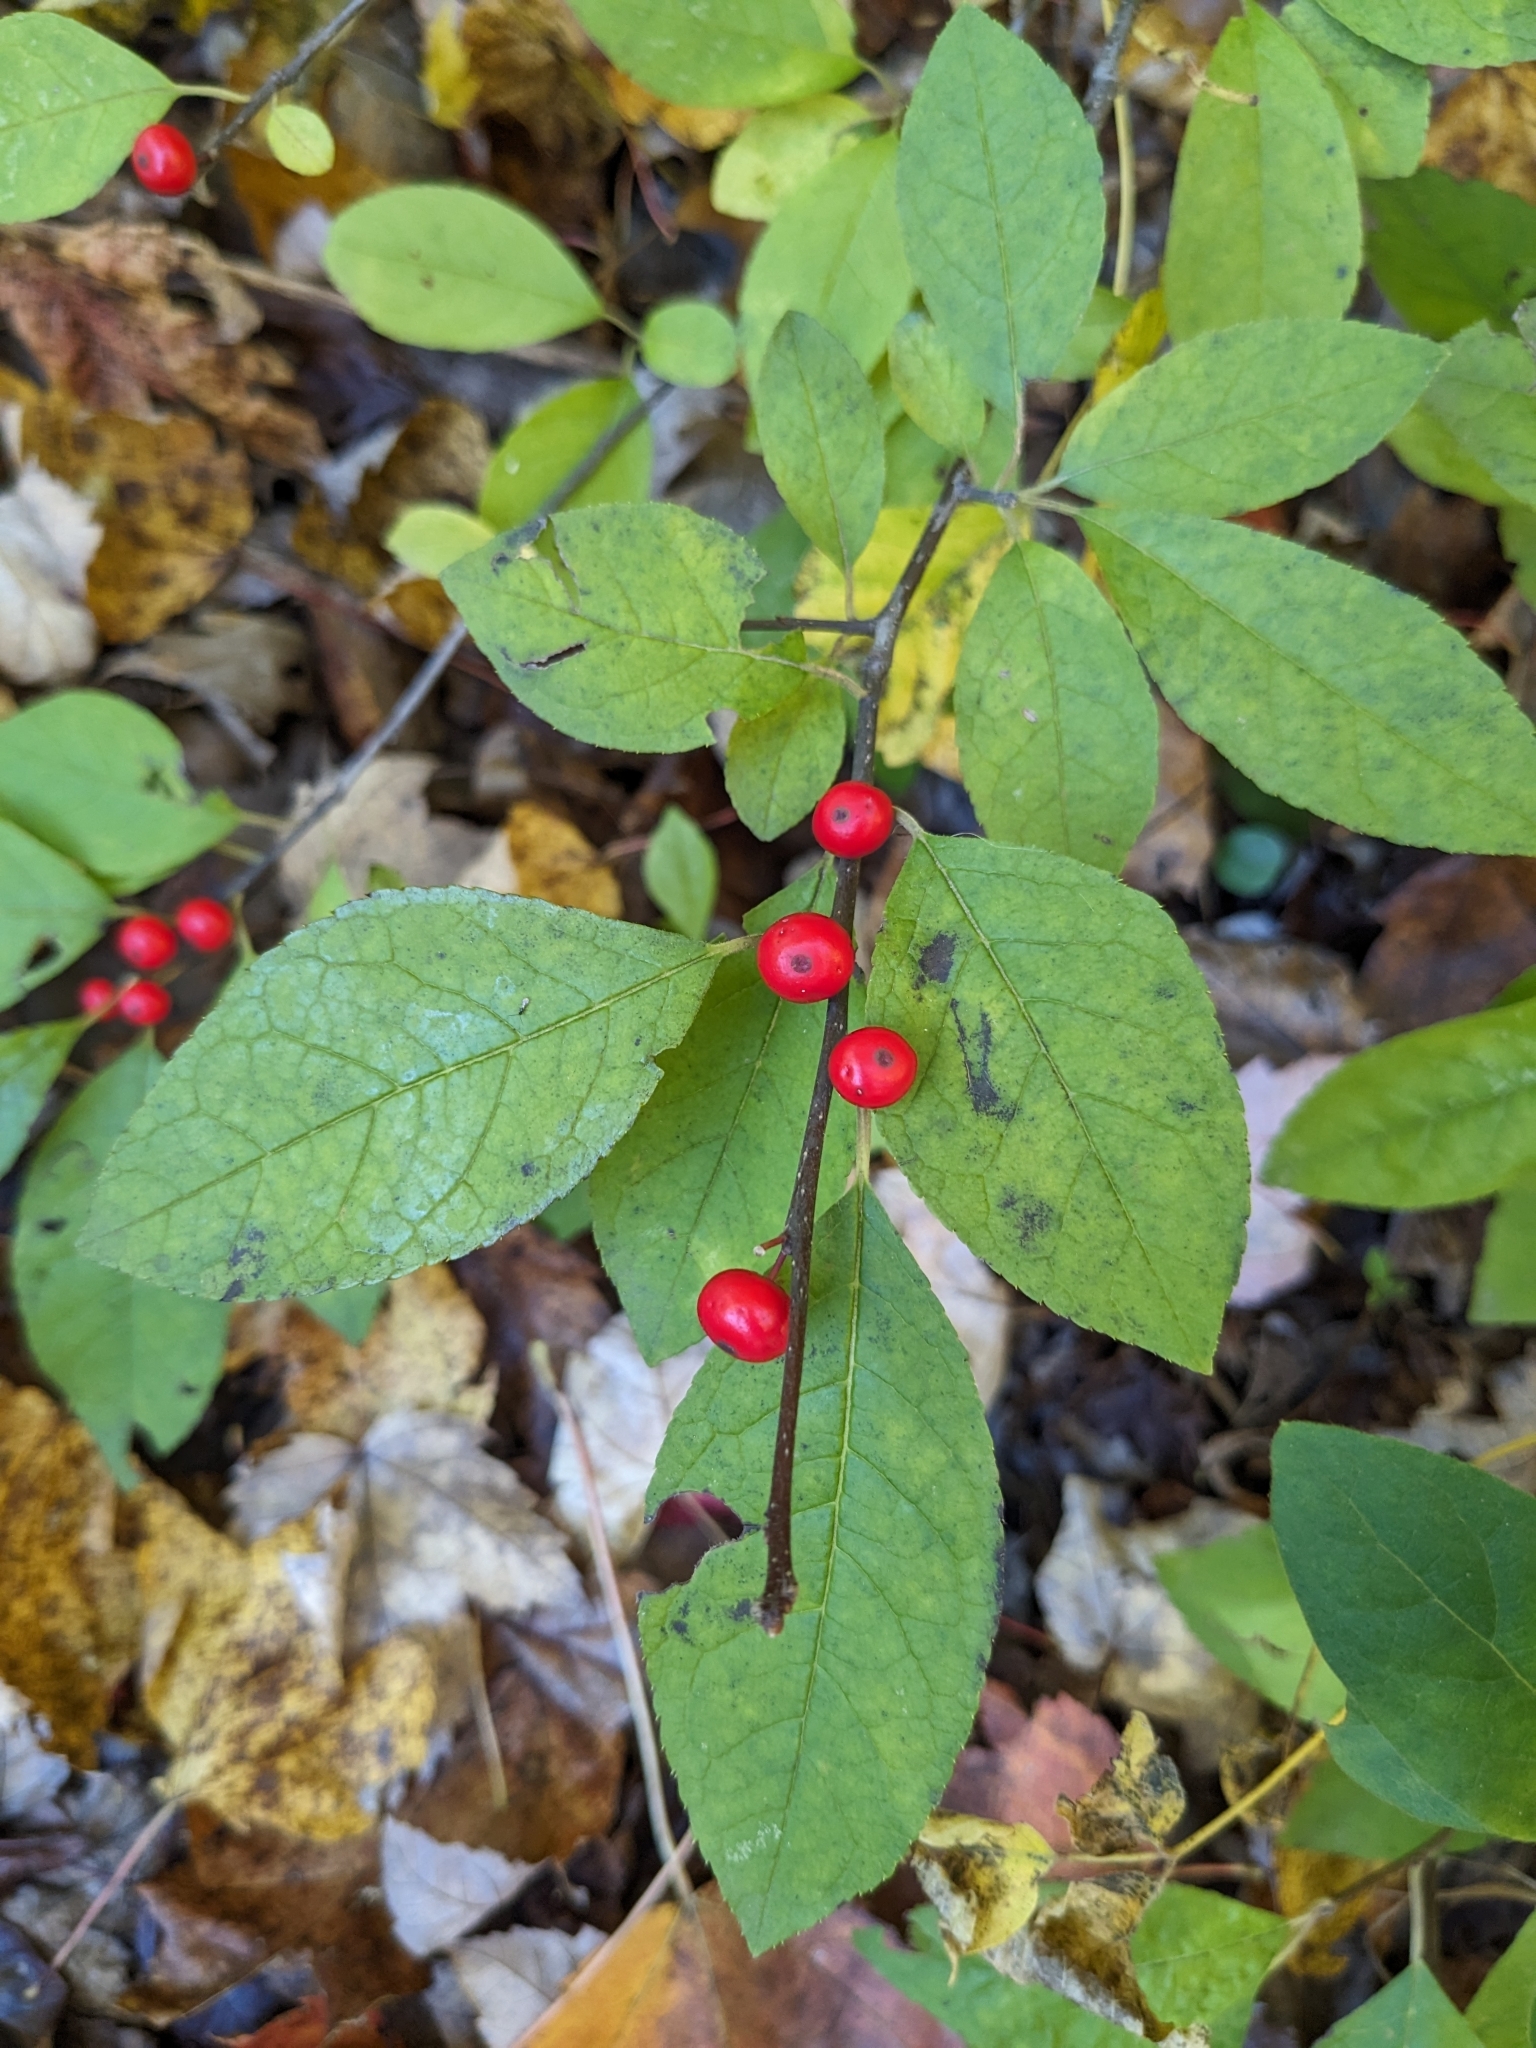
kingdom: Plantae
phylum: Tracheophyta
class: Magnoliopsida
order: Aquifoliales
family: Aquifoliaceae
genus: Ilex
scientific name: Ilex verticillata
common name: Virginia winterberry
